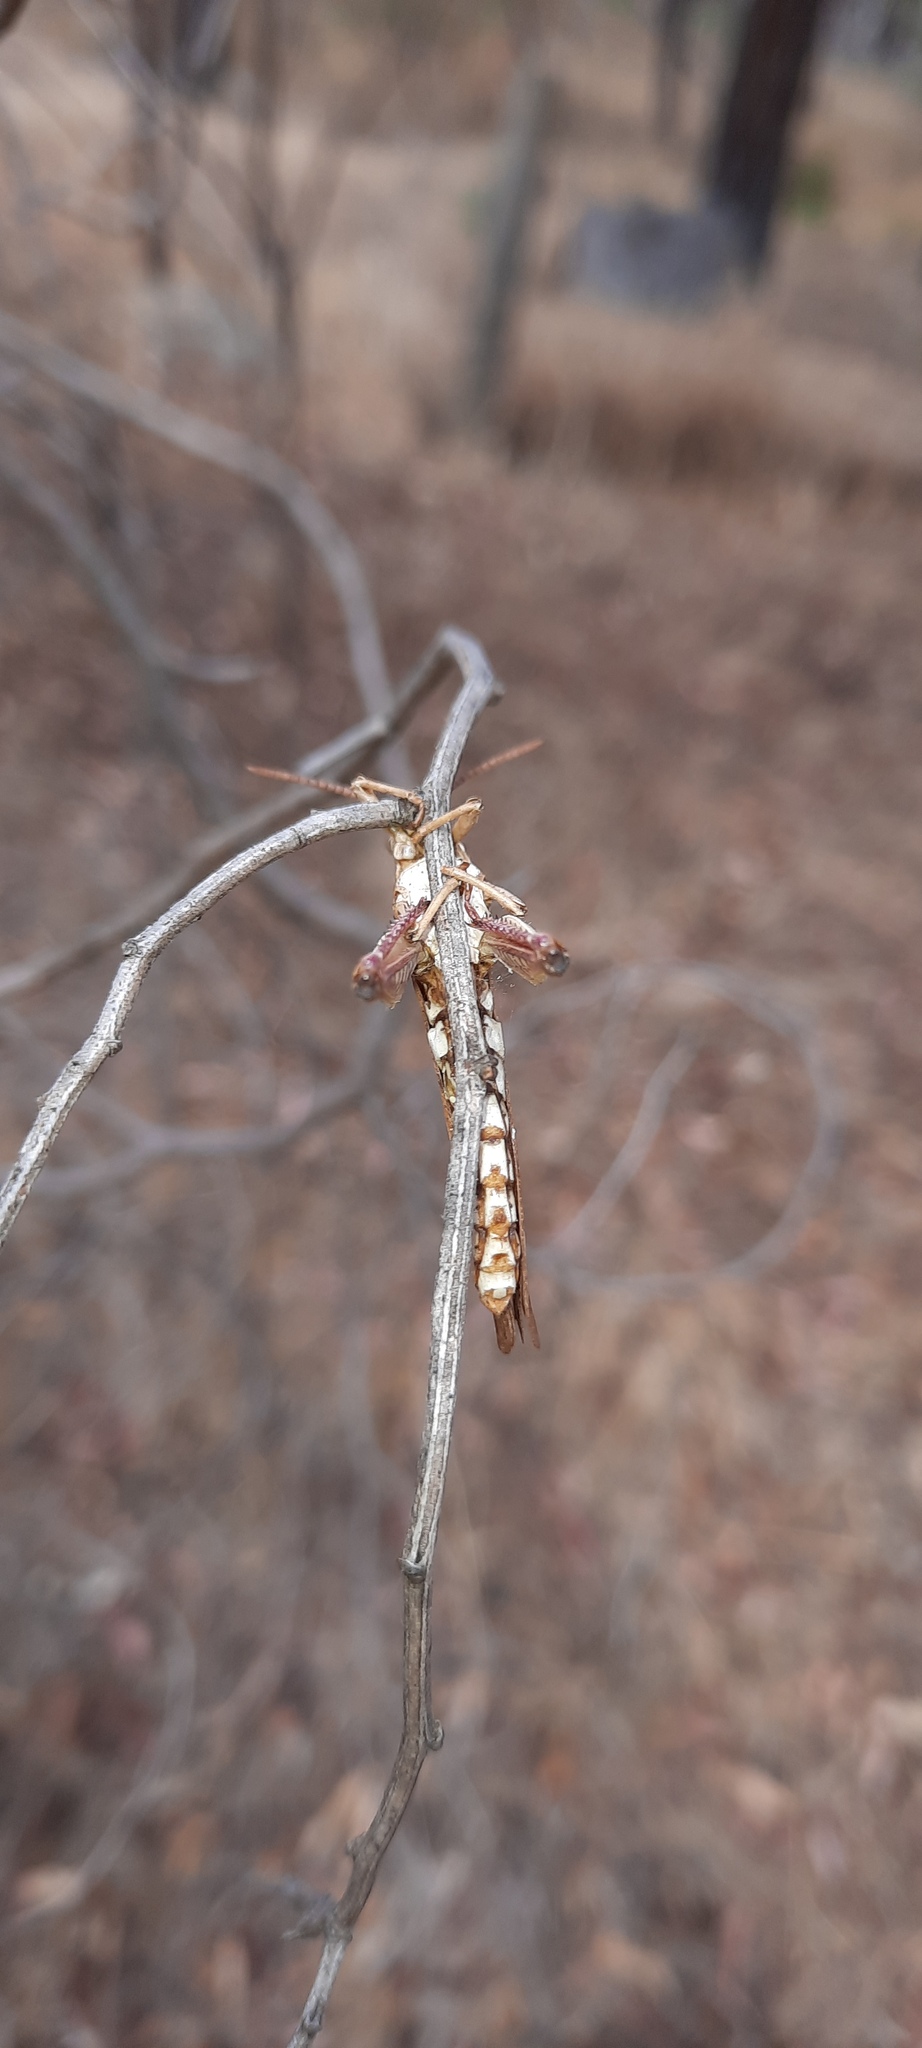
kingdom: Animalia
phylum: Arthropoda
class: Insecta
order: Orthoptera
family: Acrididae
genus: Goniaea
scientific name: Goniaea australasiae
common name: Gumleaf grasshopper
